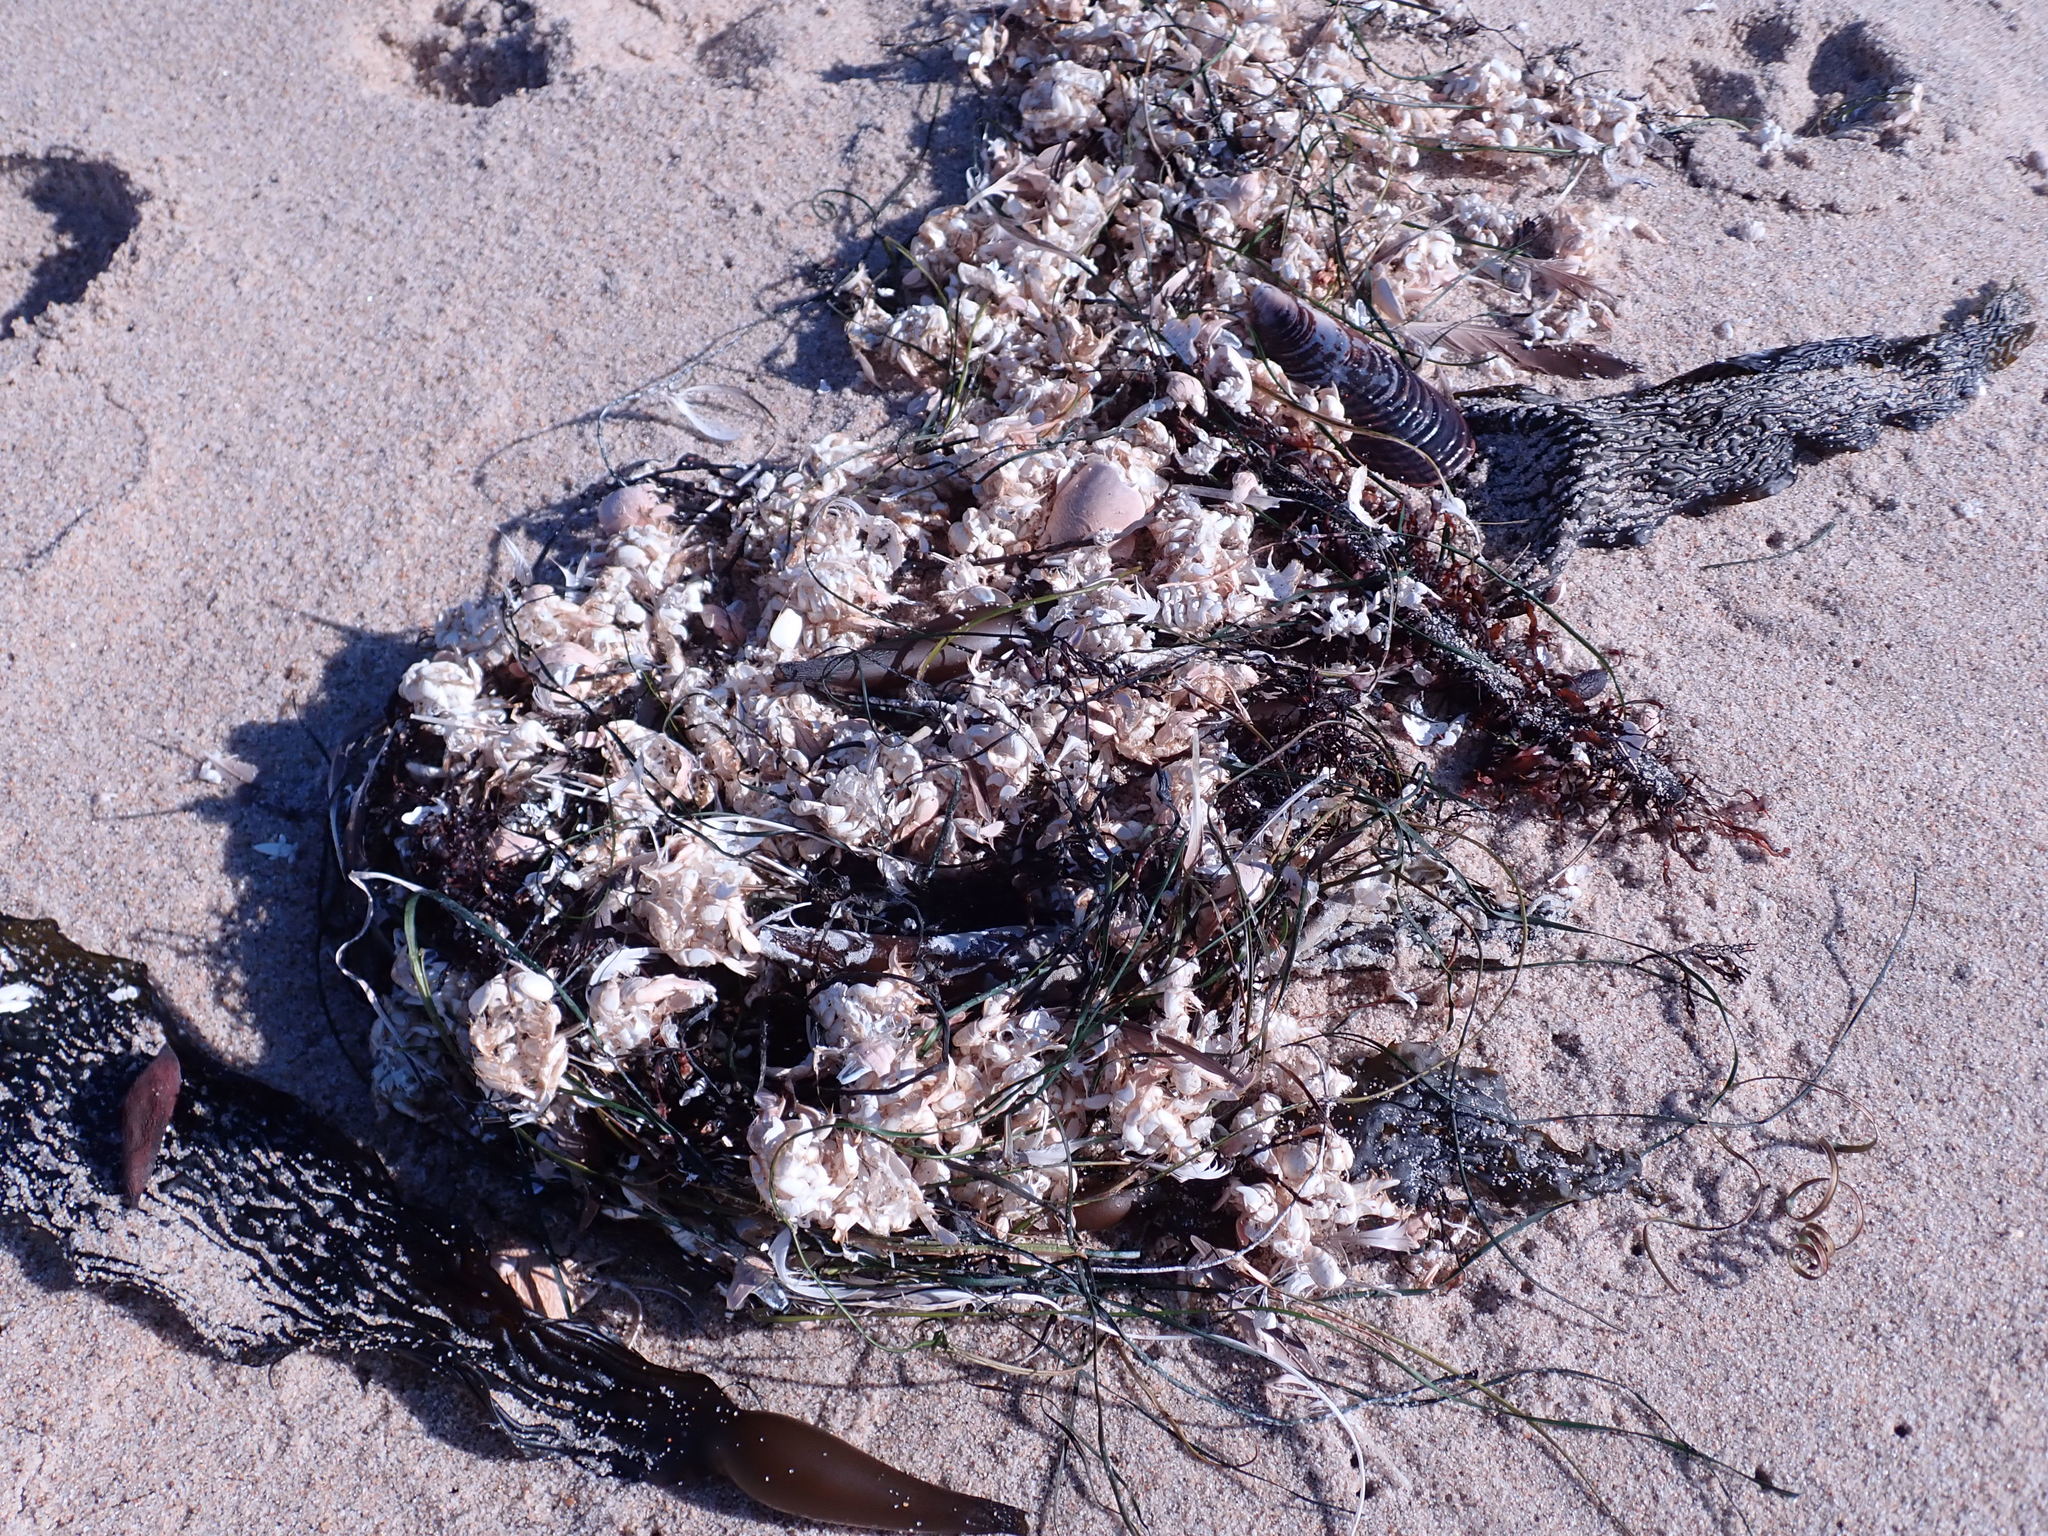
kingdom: Animalia
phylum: Arthropoda
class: Malacostraca
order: Decapoda
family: Hippidae
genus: Emerita
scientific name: Emerita analoga
